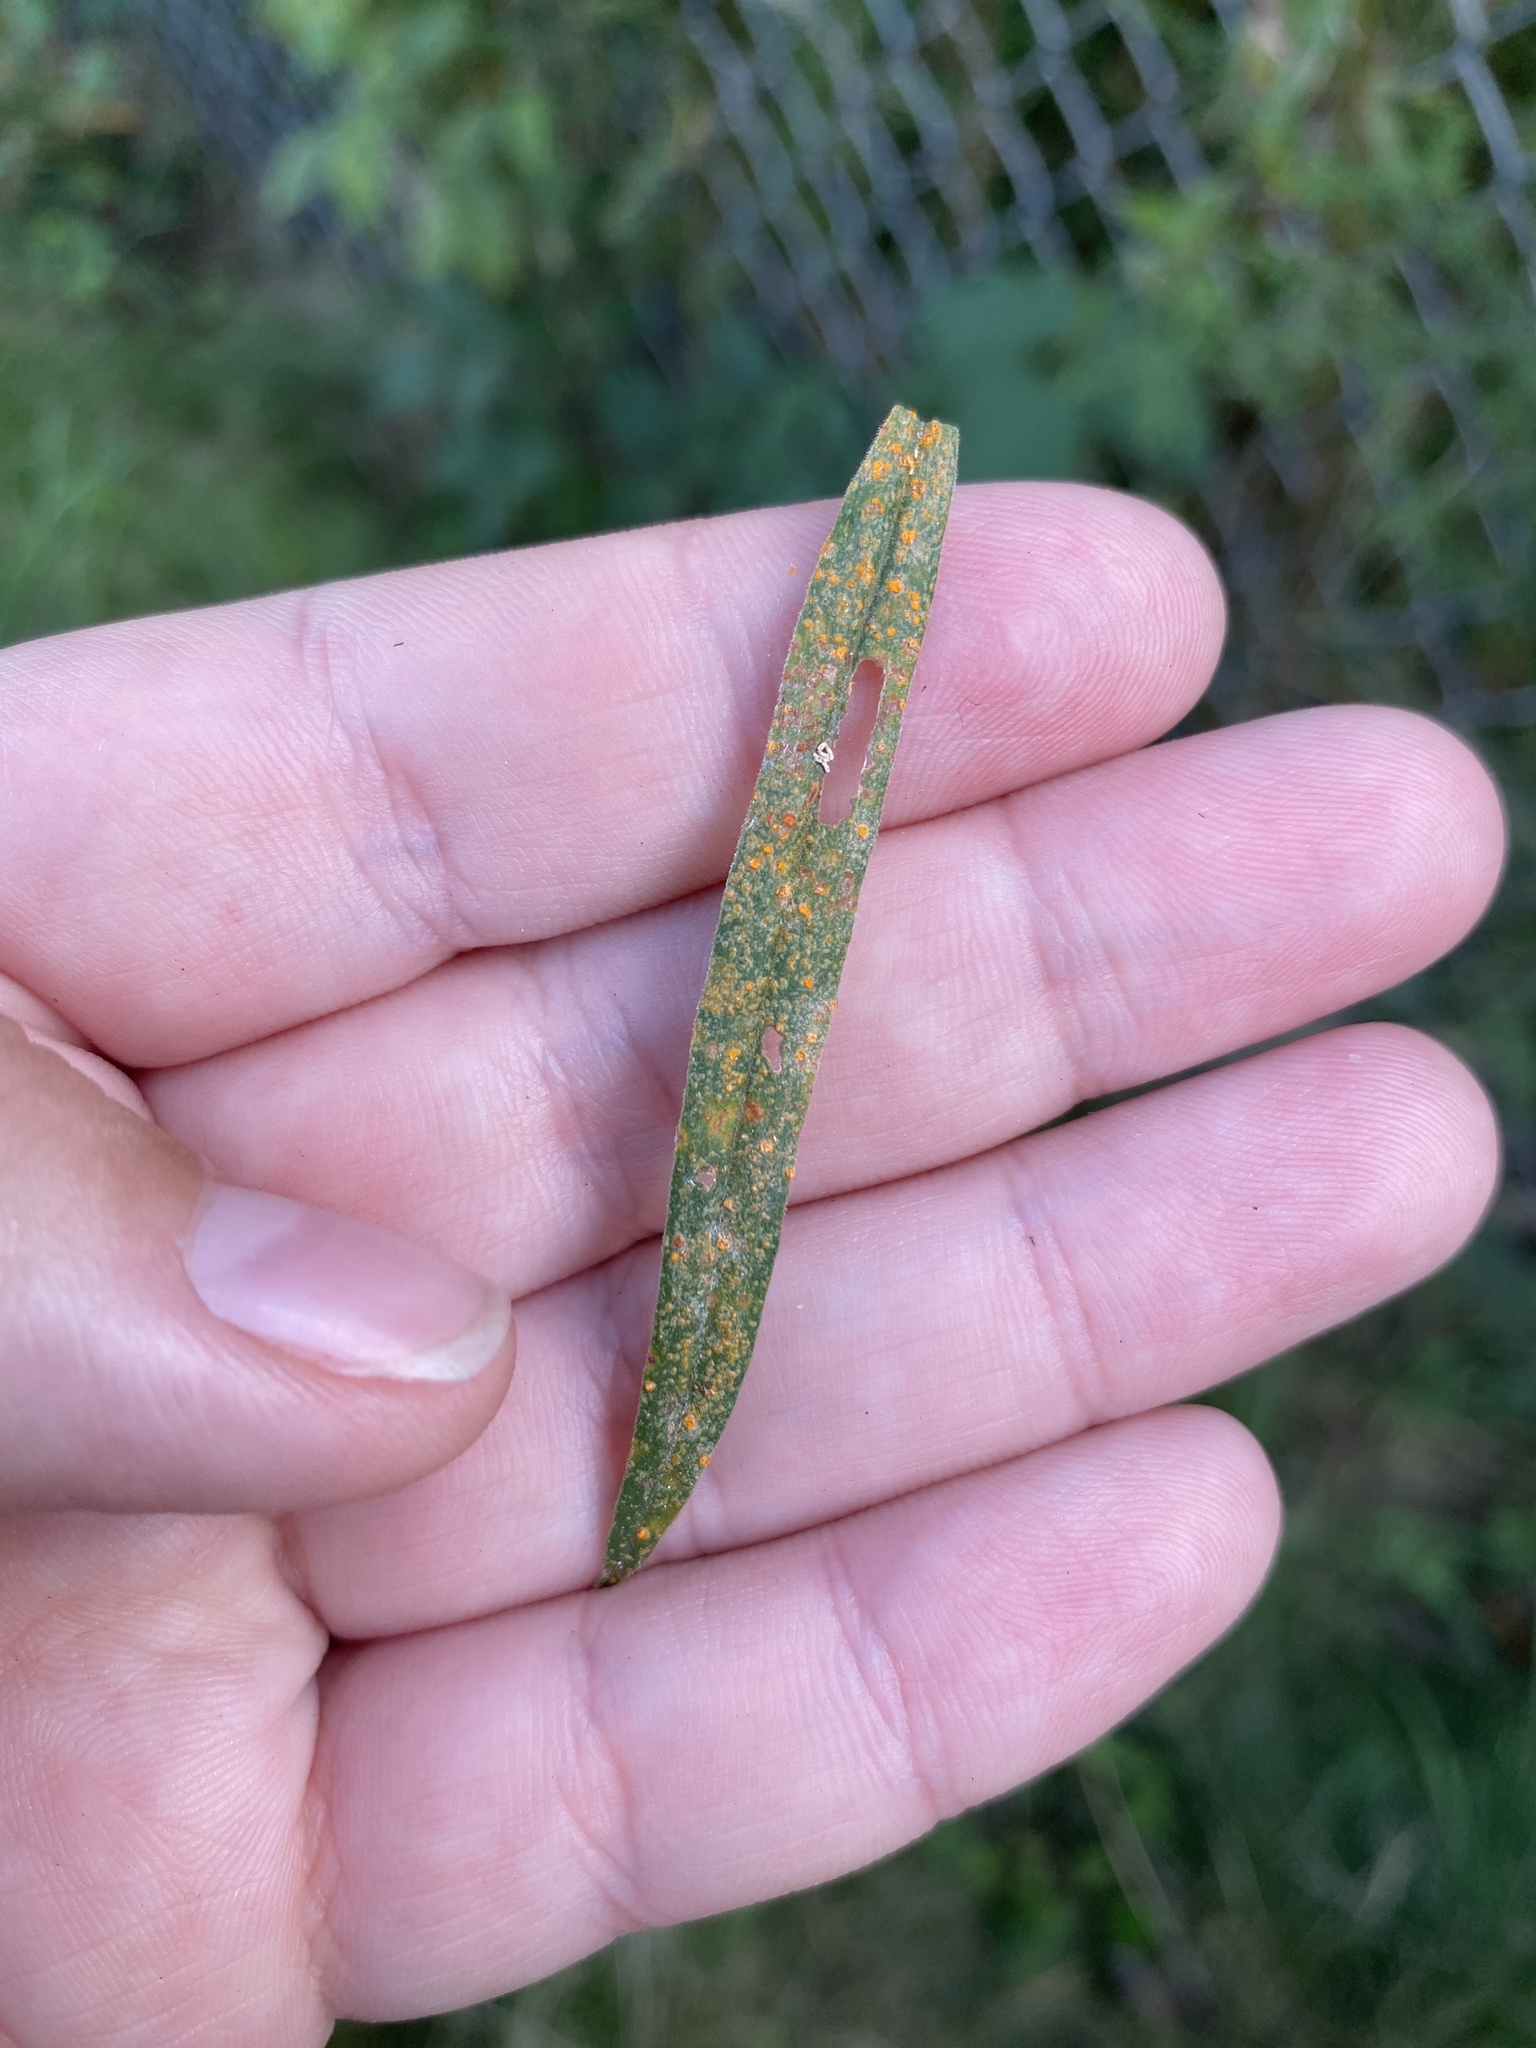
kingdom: Fungi
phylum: Basidiomycota
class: Pucciniomycetes
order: Pucciniales
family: Coleosporiaceae
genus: Coleosporium
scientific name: Coleosporium asterum
